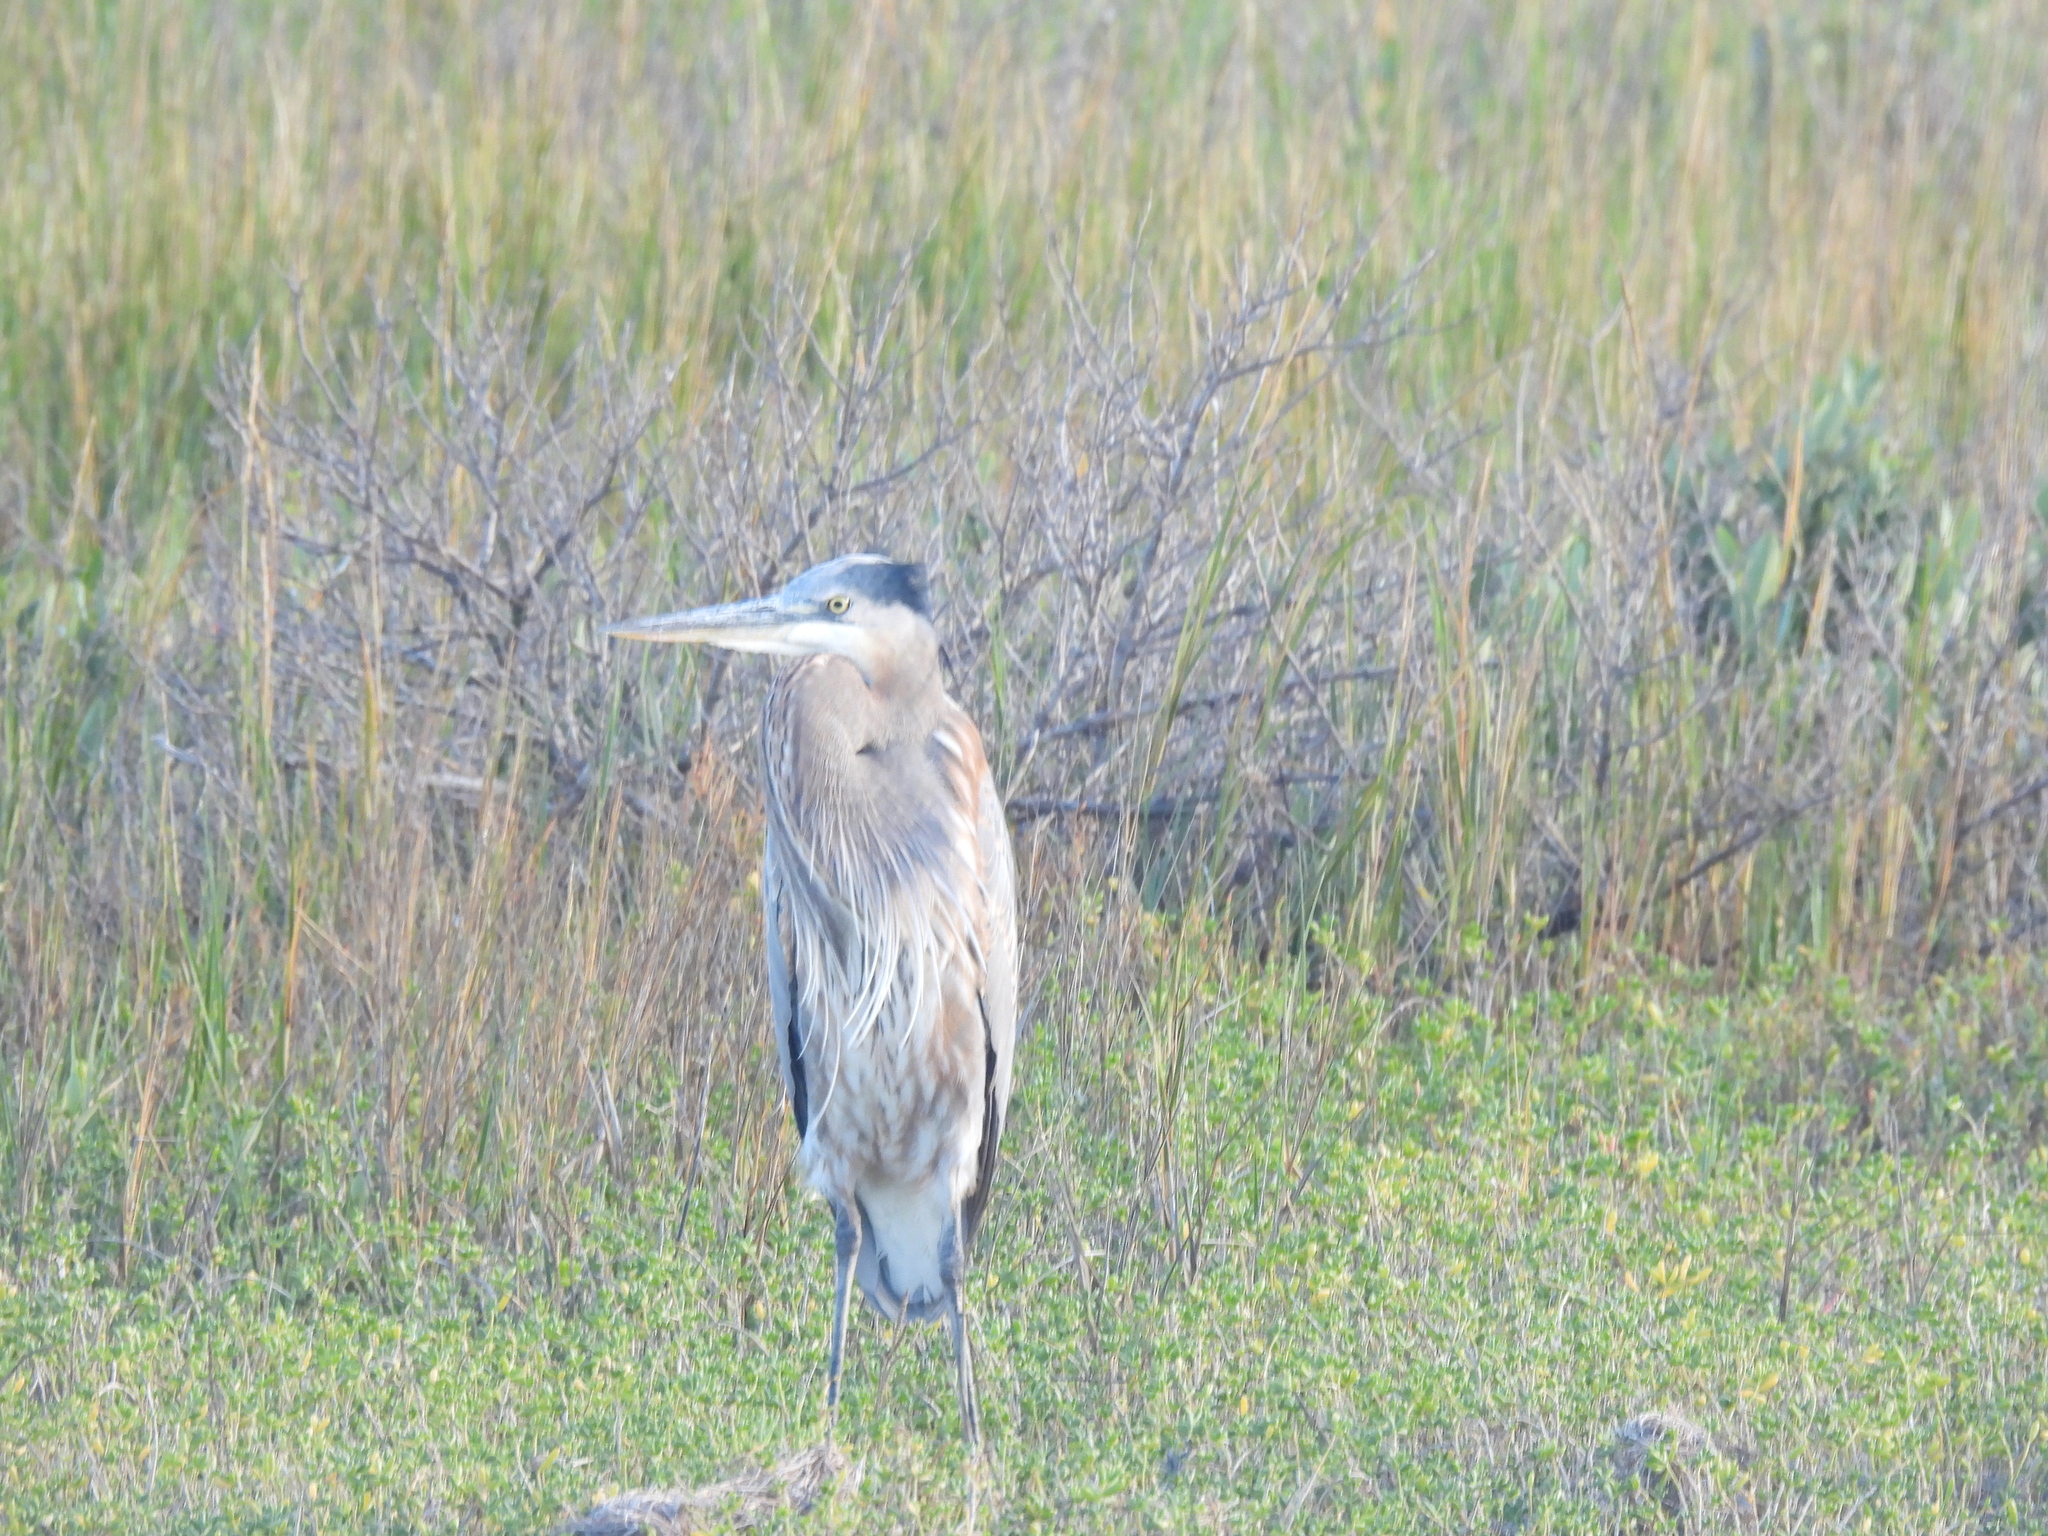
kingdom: Animalia
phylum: Chordata
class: Aves
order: Pelecaniformes
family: Ardeidae
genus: Ardea
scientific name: Ardea herodias
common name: Great blue heron
